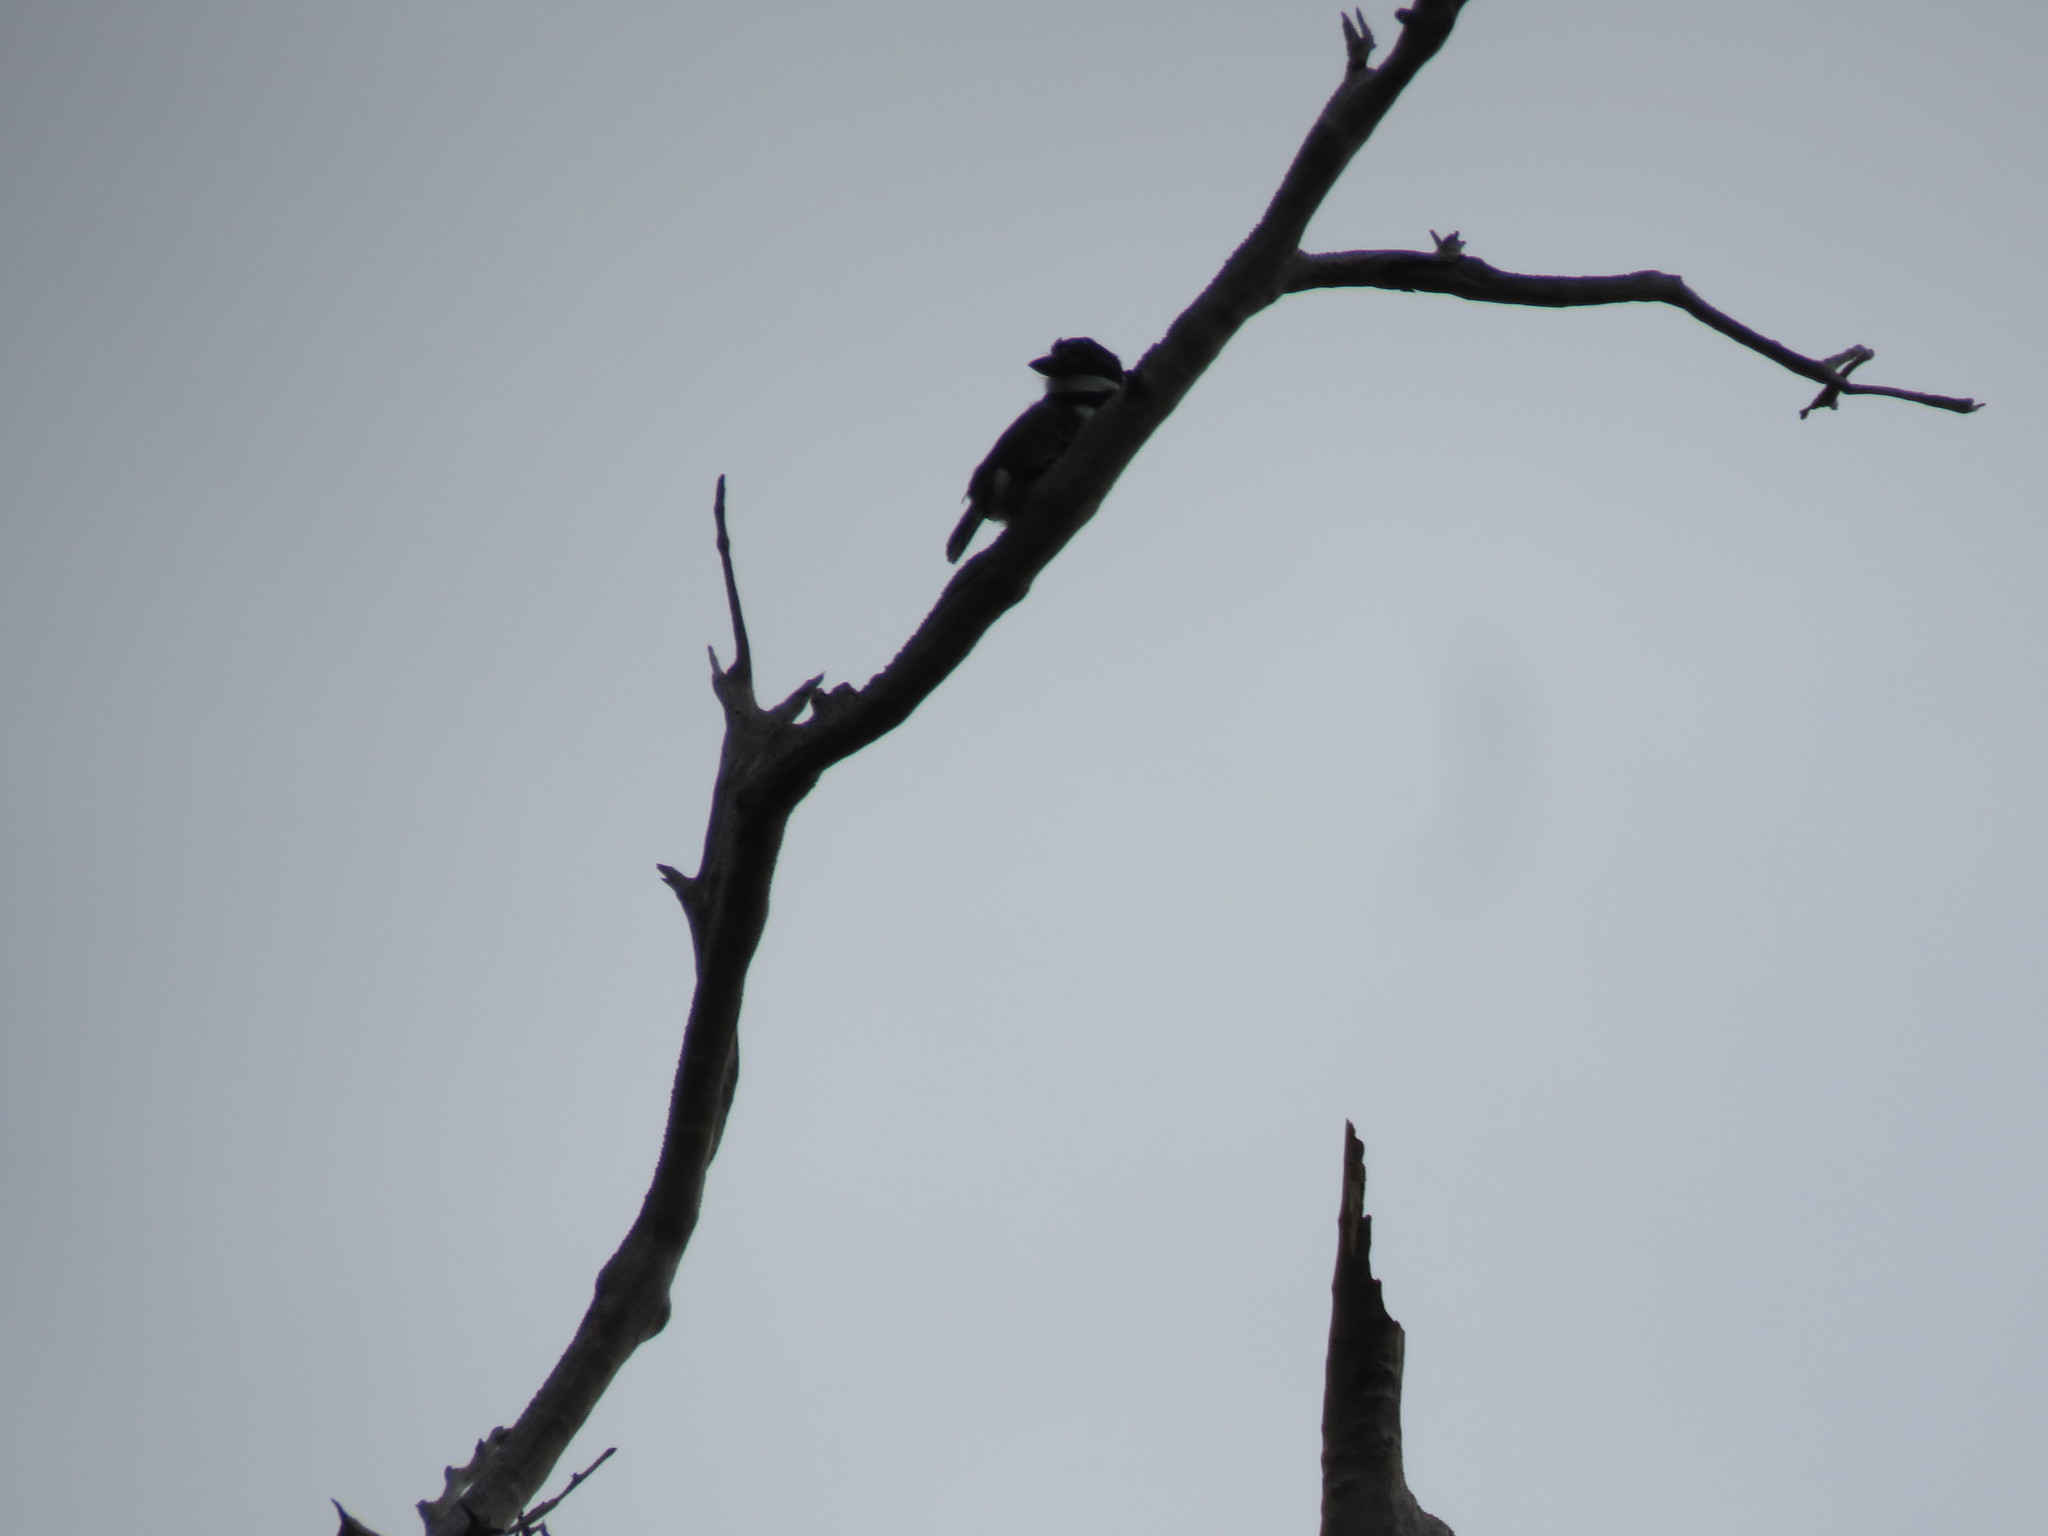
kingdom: Animalia
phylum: Chordata
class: Aves
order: Piciformes
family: Bucconidae
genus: Notharchus
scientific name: Notharchus tectus
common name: Pied puffbird
